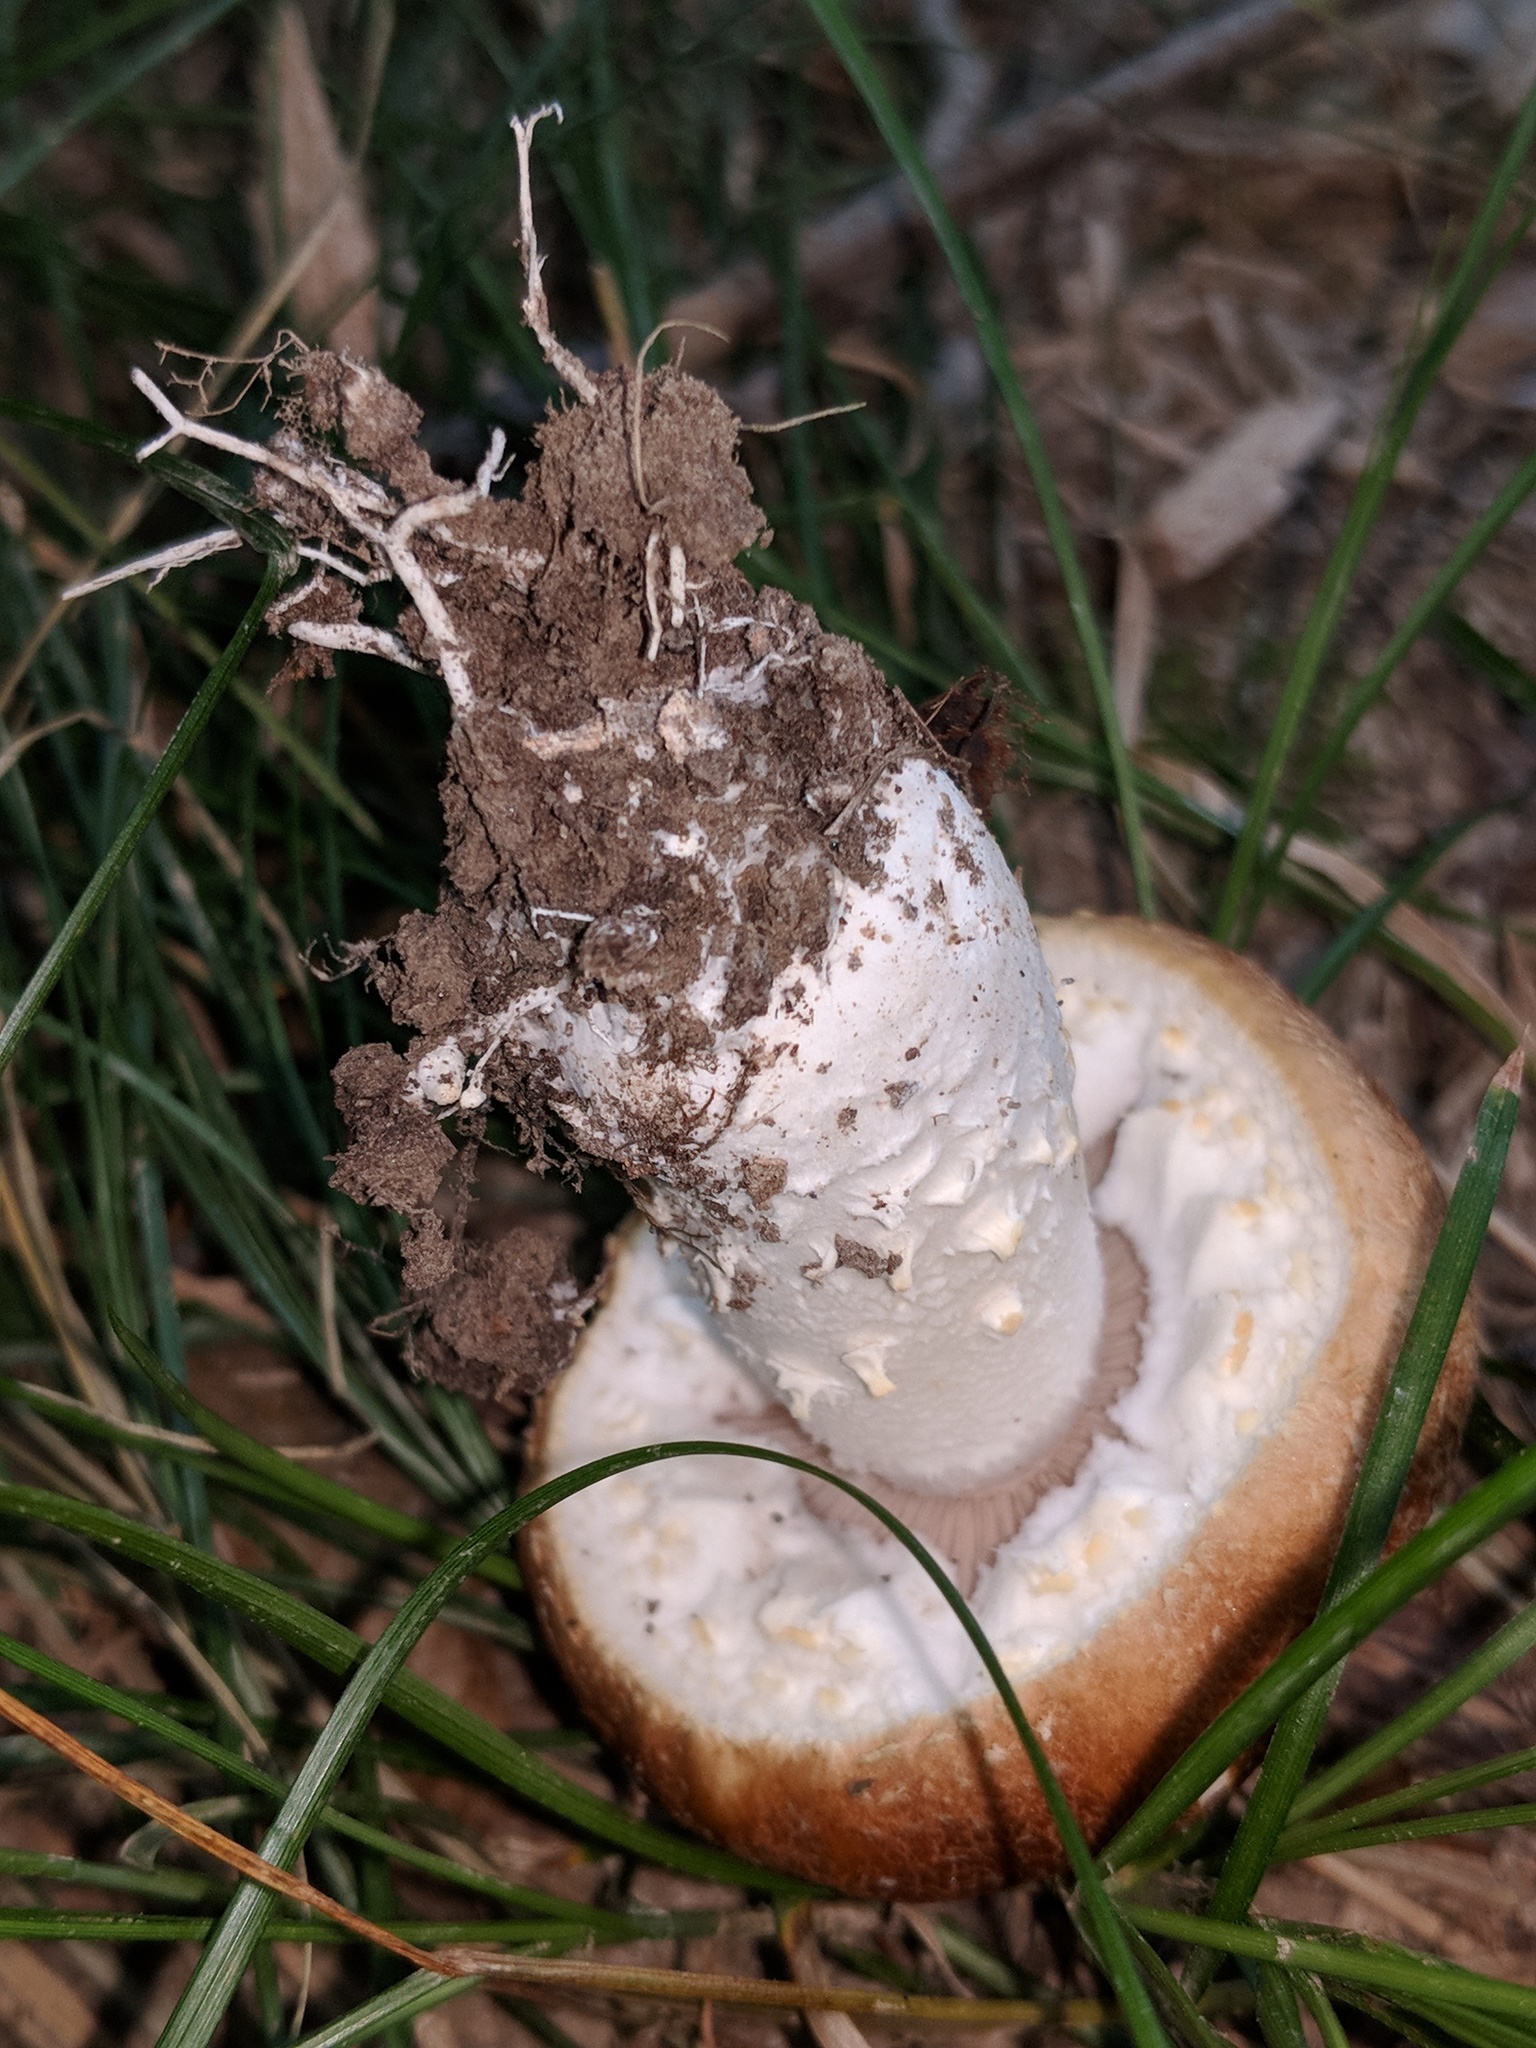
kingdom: Fungi
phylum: Basidiomycota
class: Agaricomycetes
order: Agaricales
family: Strophariaceae
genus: Stropharia
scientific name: Stropharia kauffmanii
